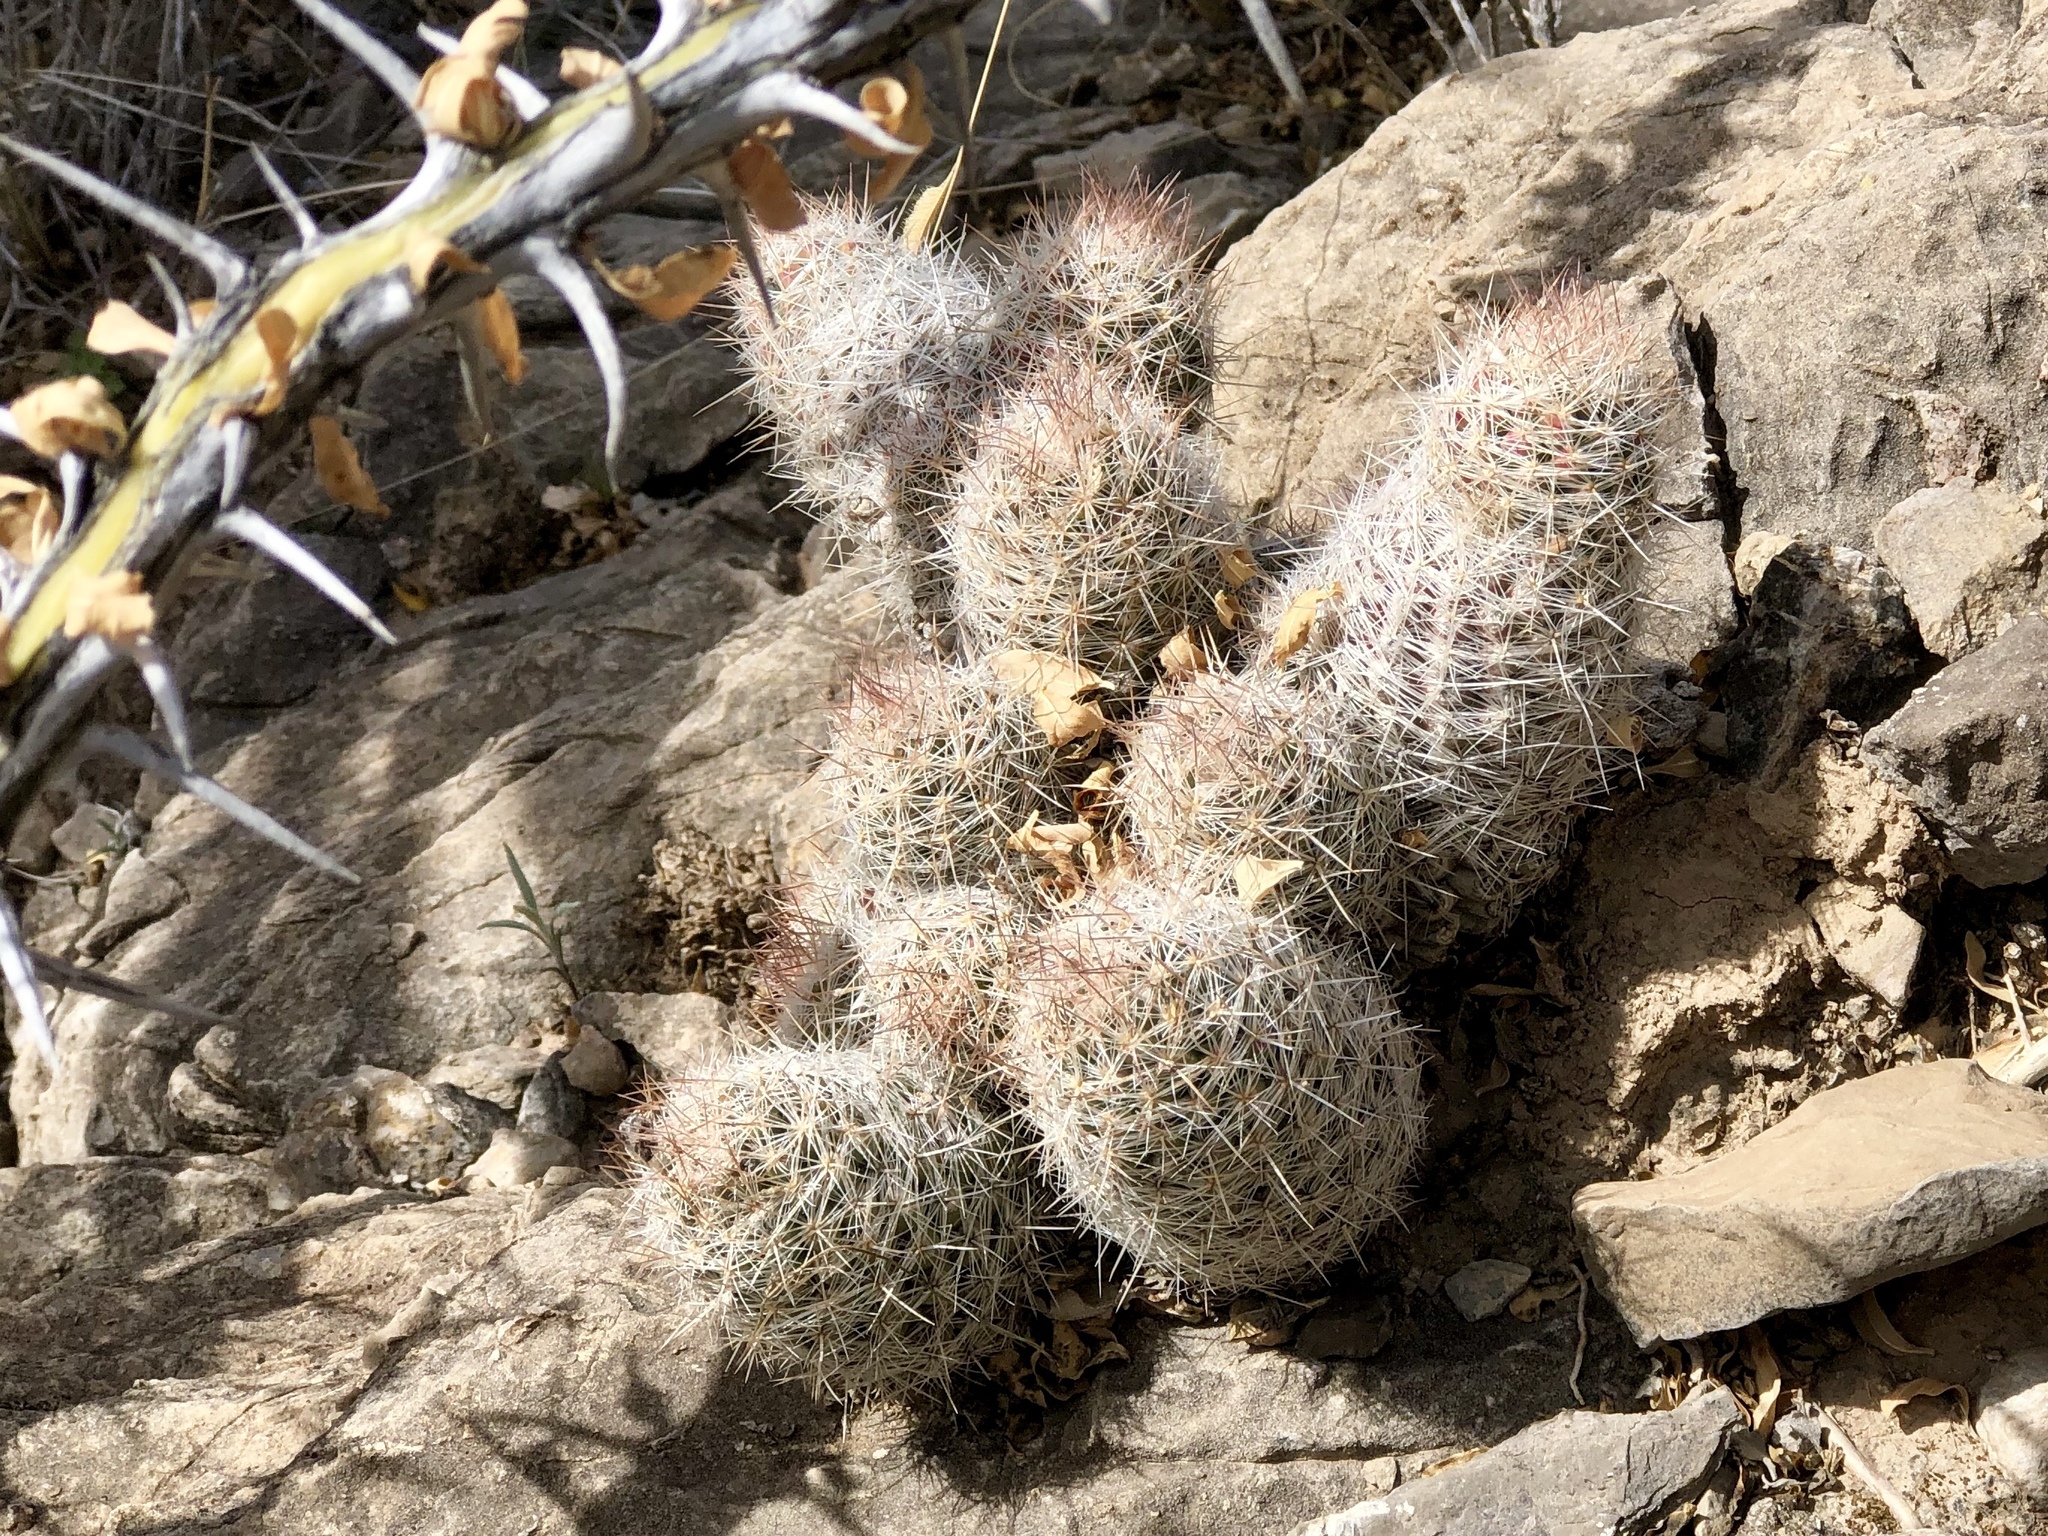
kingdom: Plantae
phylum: Tracheophyta
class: Magnoliopsida
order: Caryophyllales
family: Cactaceae
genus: Pelecyphora
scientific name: Pelecyphora tuberculosa
